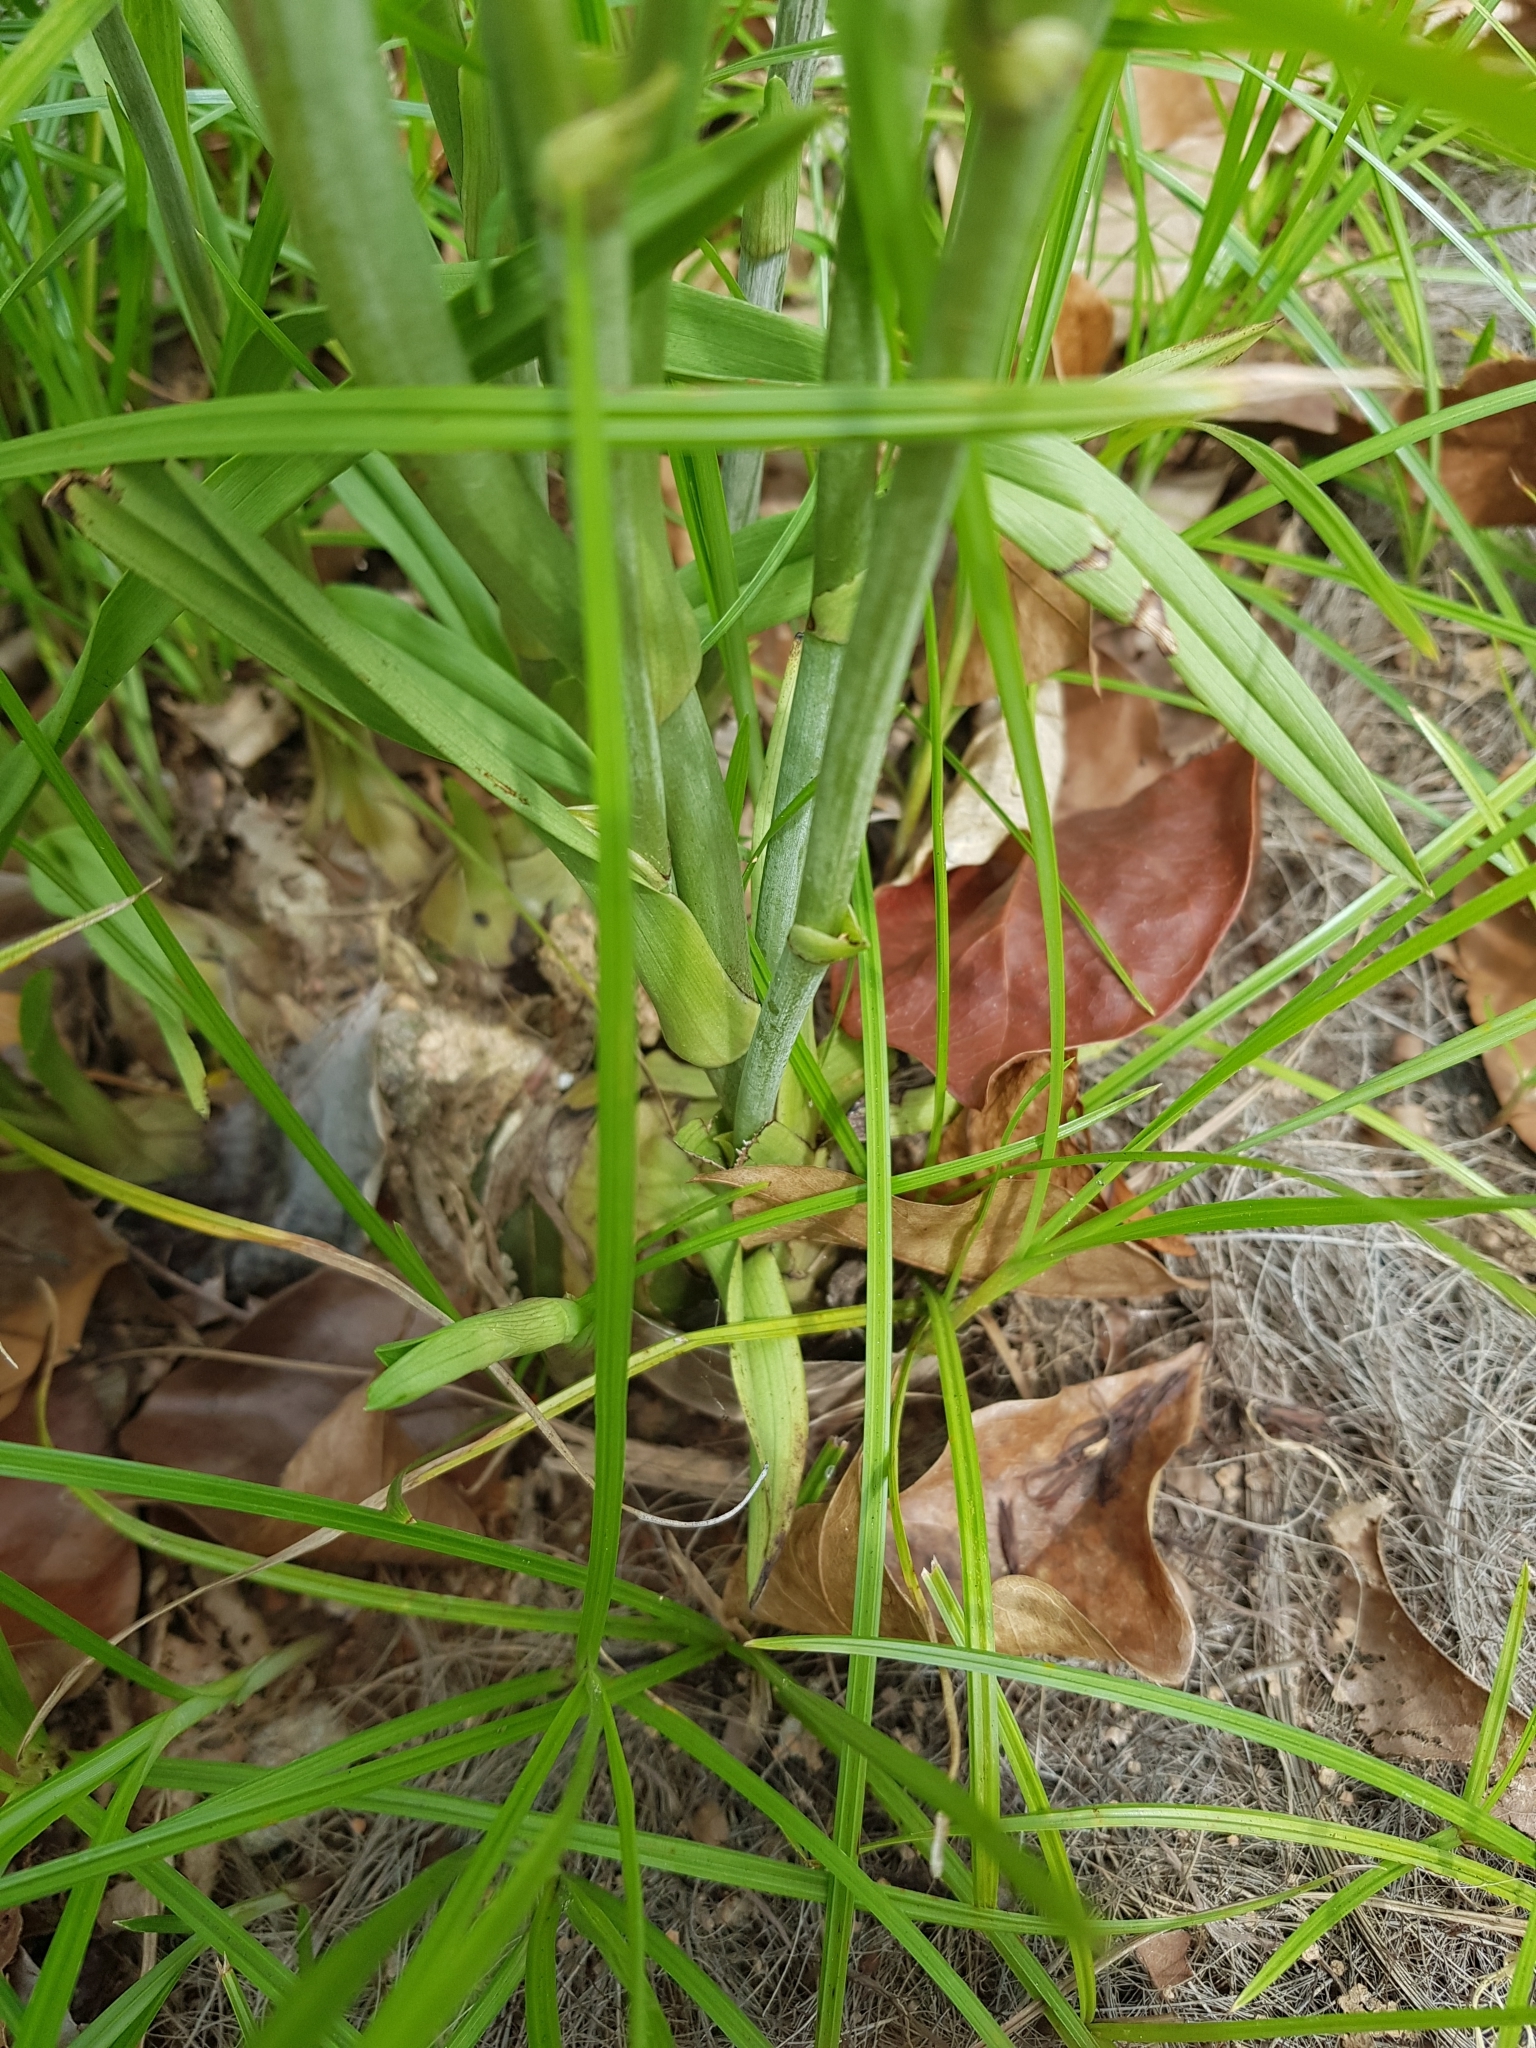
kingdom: Plantae
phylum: Tracheophyta
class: Liliopsida
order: Asparagales
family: Orchidaceae
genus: Eulophia
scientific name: Eulophia graminea
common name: Orchid
